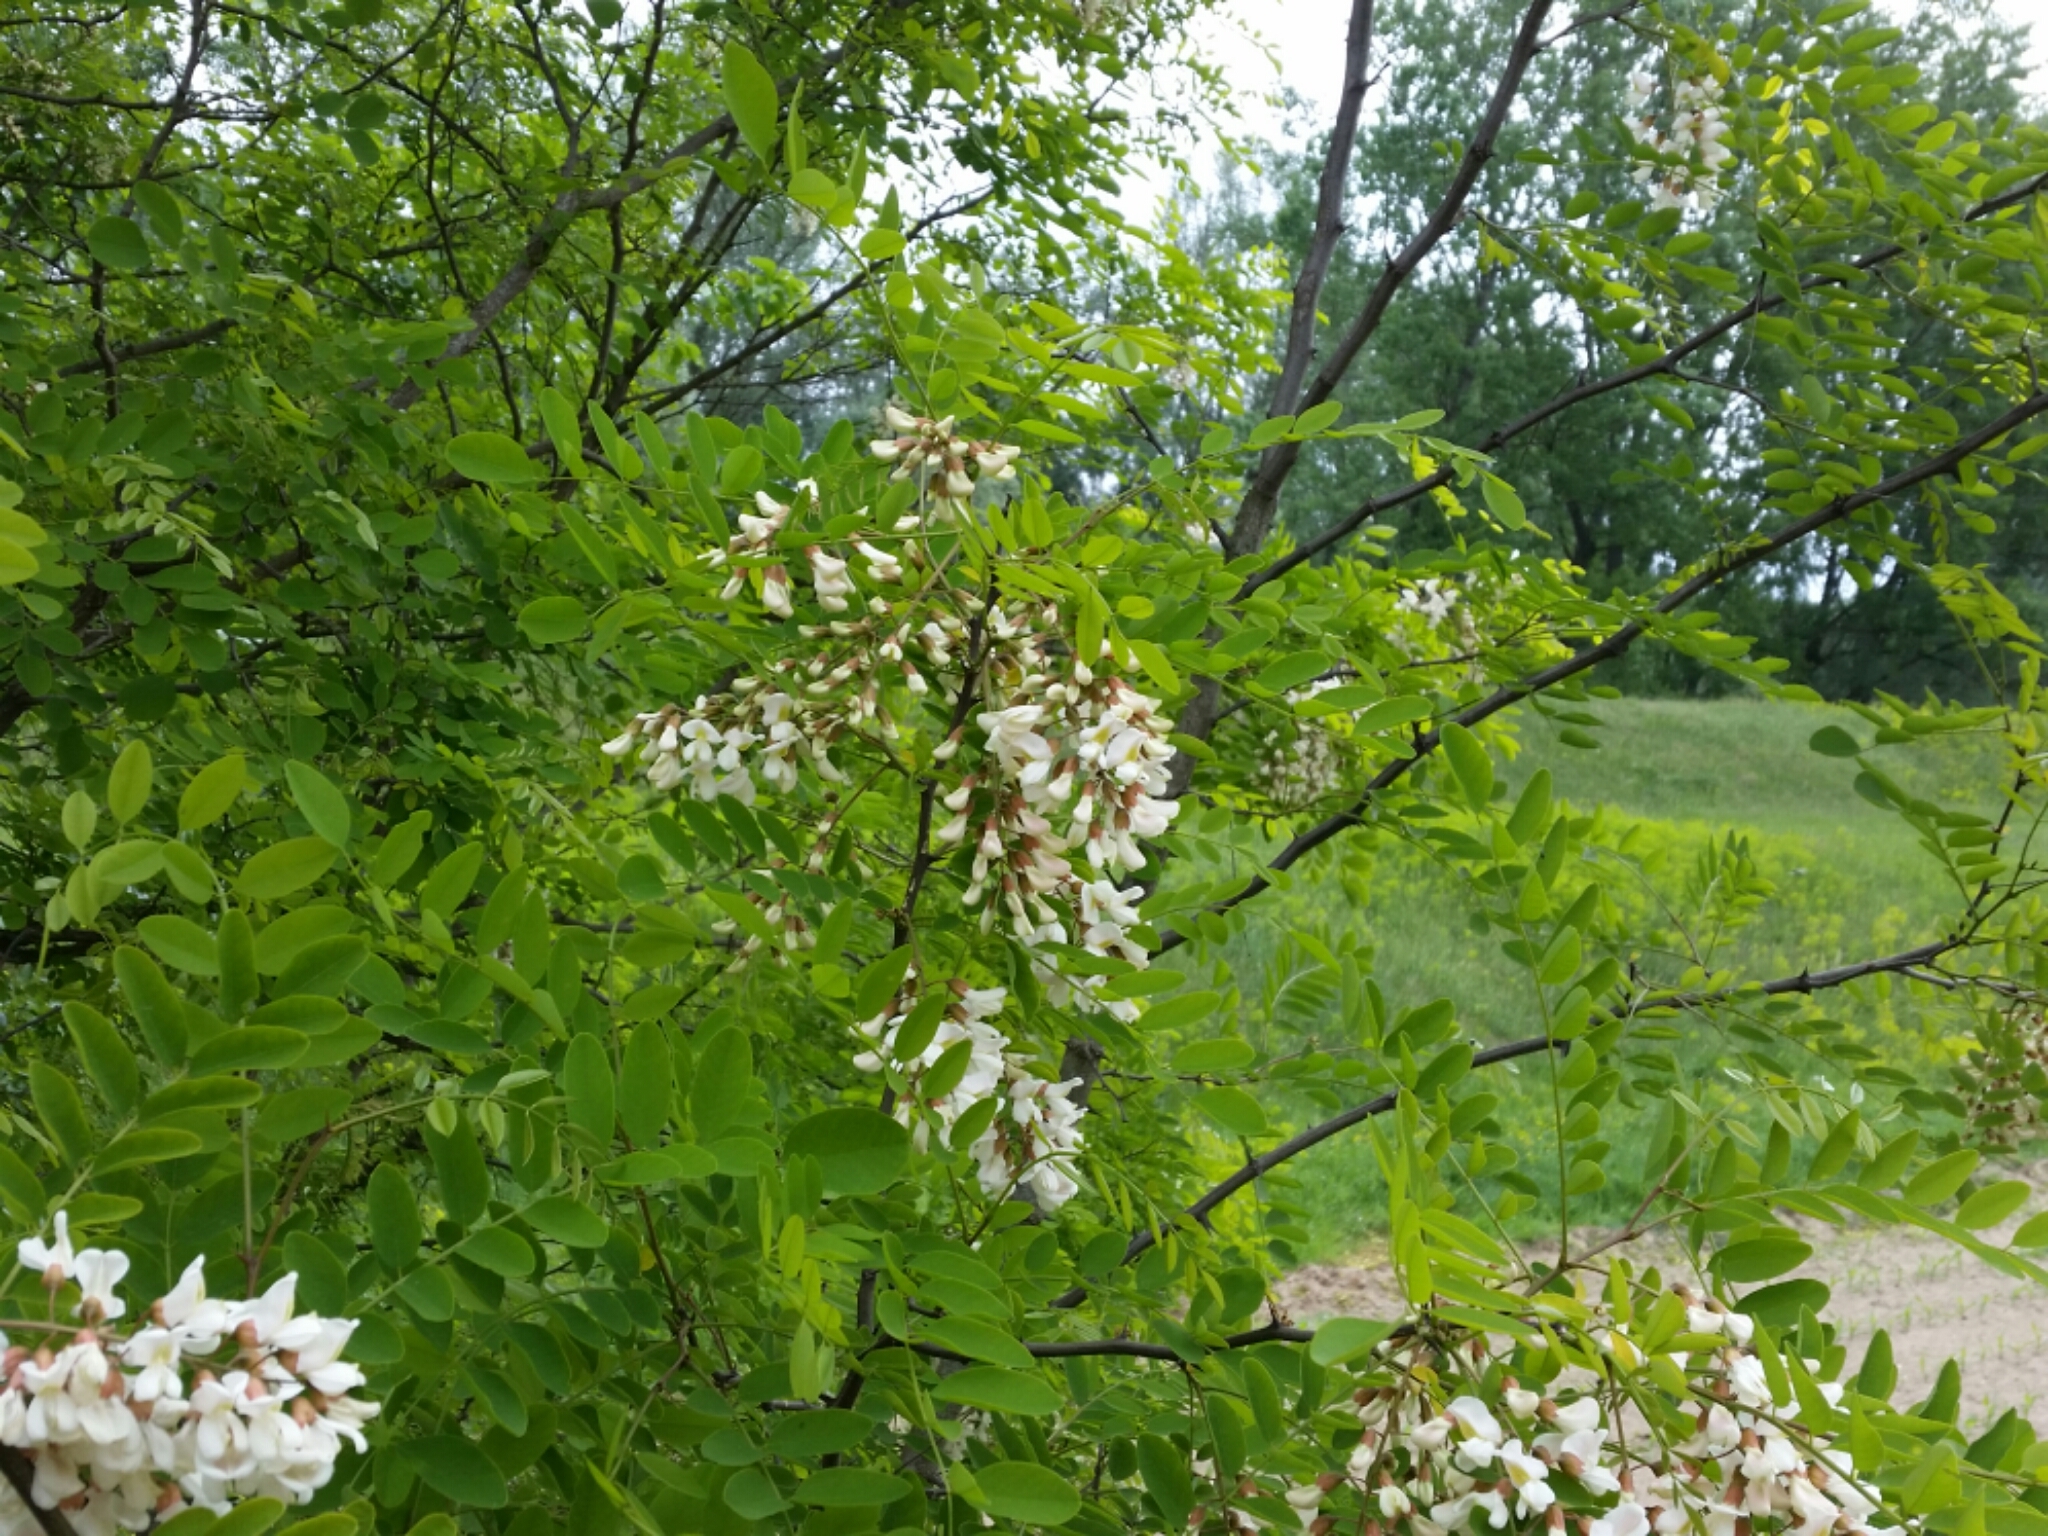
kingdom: Plantae
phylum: Tracheophyta
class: Magnoliopsida
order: Fabales
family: Fabaceae
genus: Robinia
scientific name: Robinia pseudoacacia
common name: Black locust
